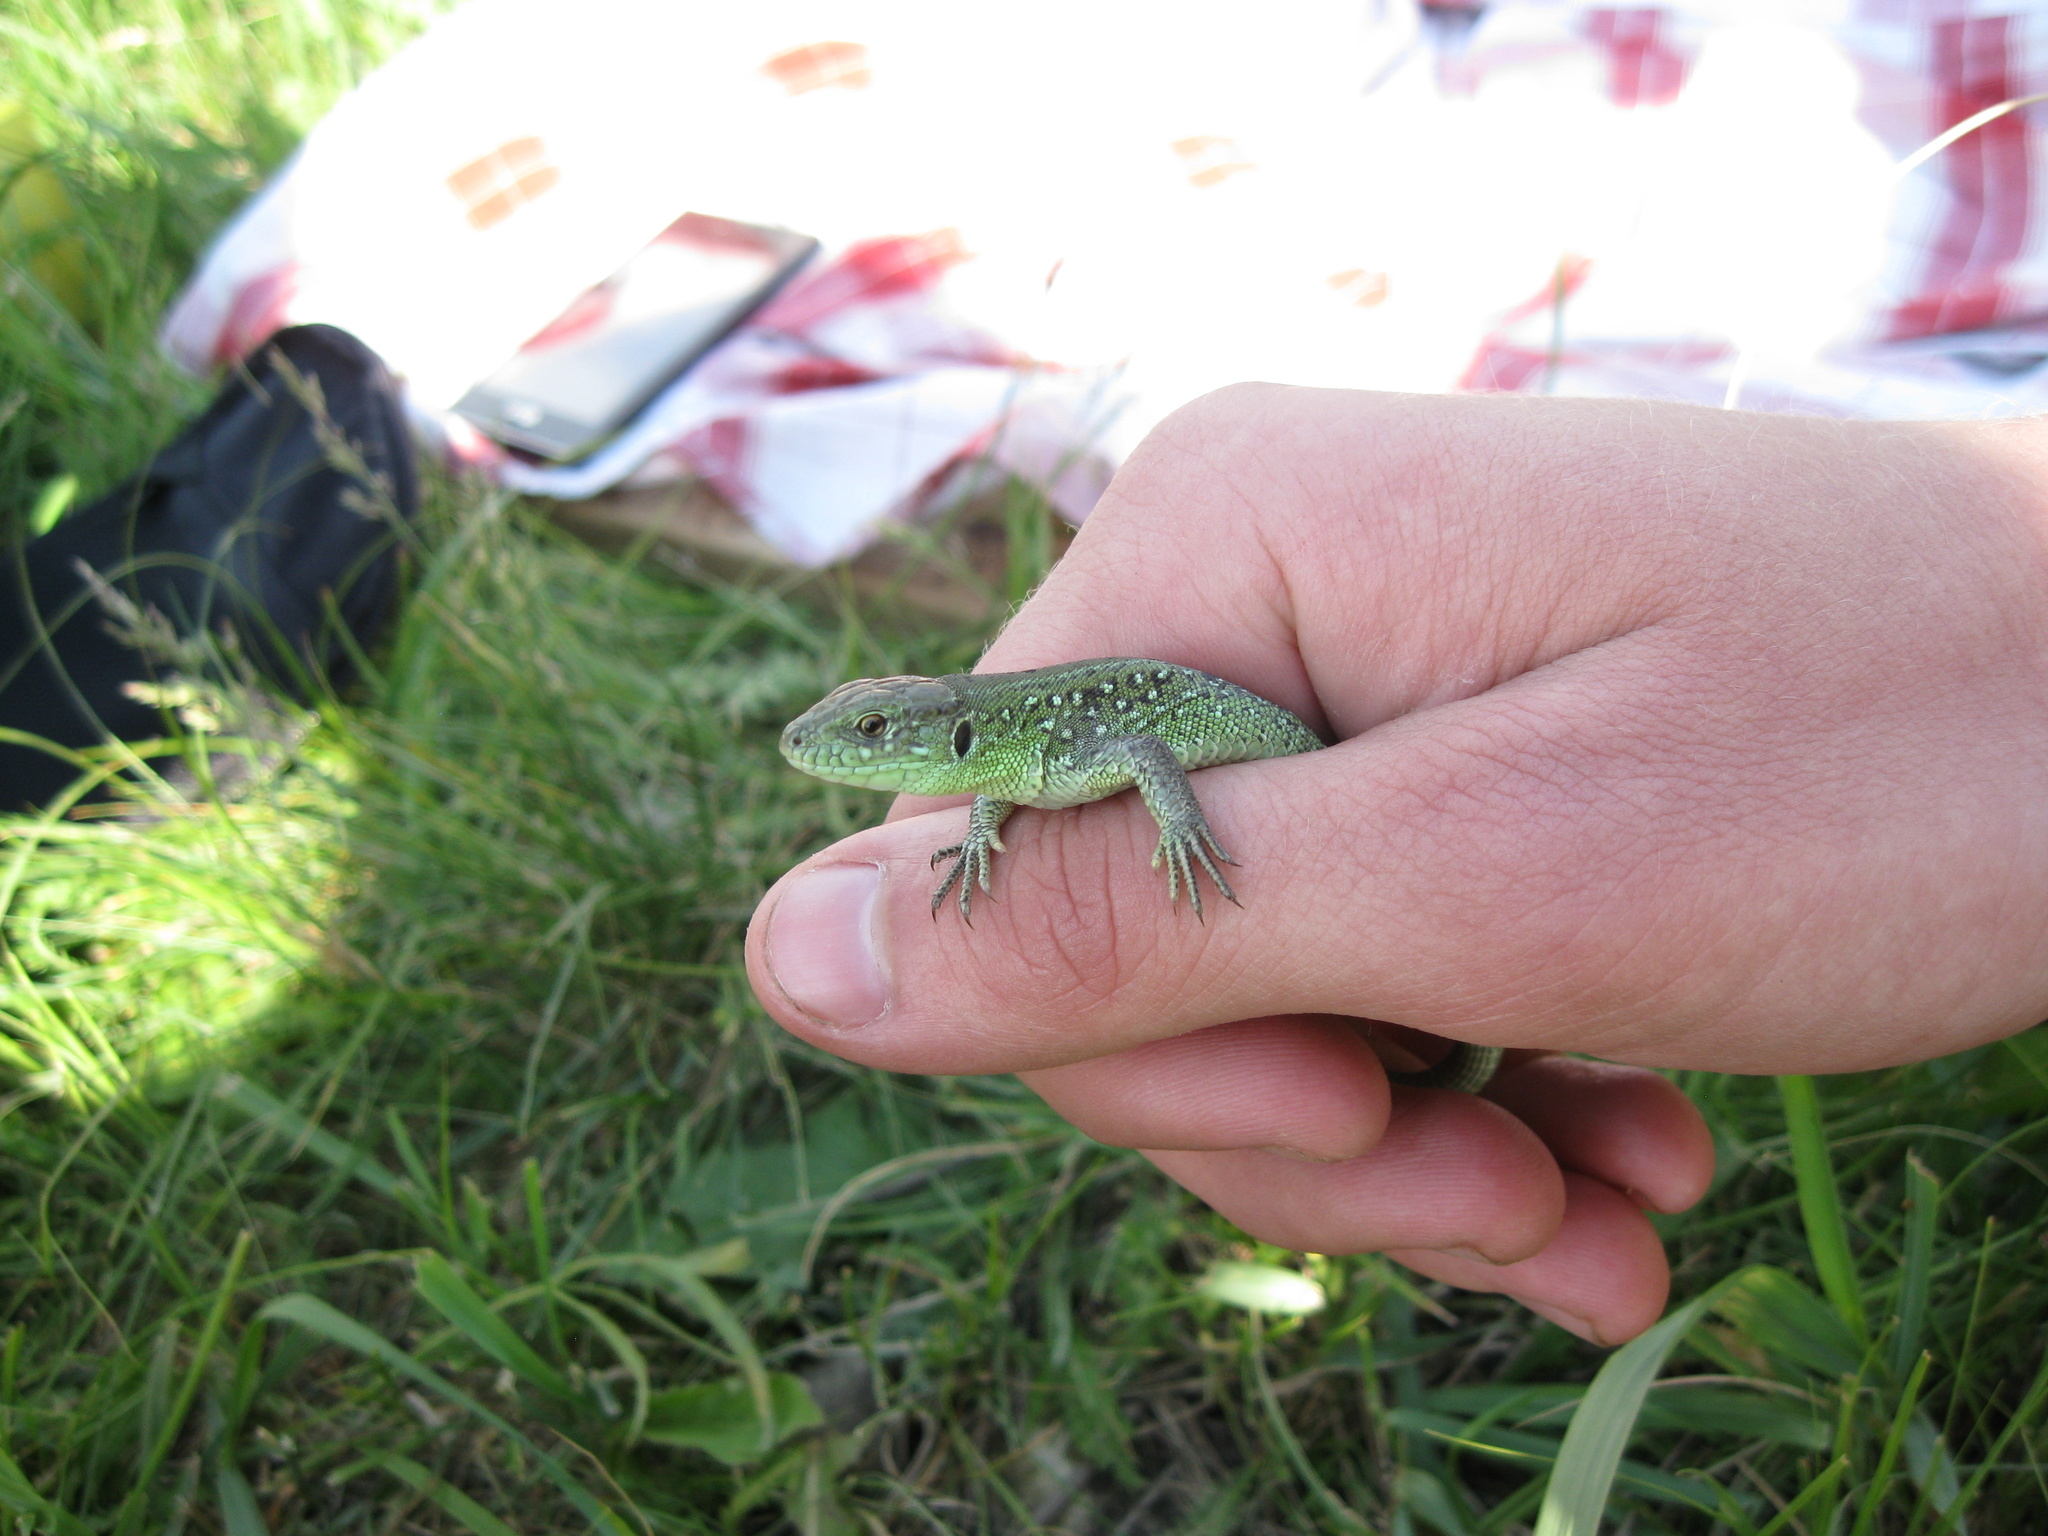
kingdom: Animalia
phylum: Chordata
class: Squamata
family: Lacertidae
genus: Lacerta
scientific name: Lacerta agilis
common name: Sand lizard
